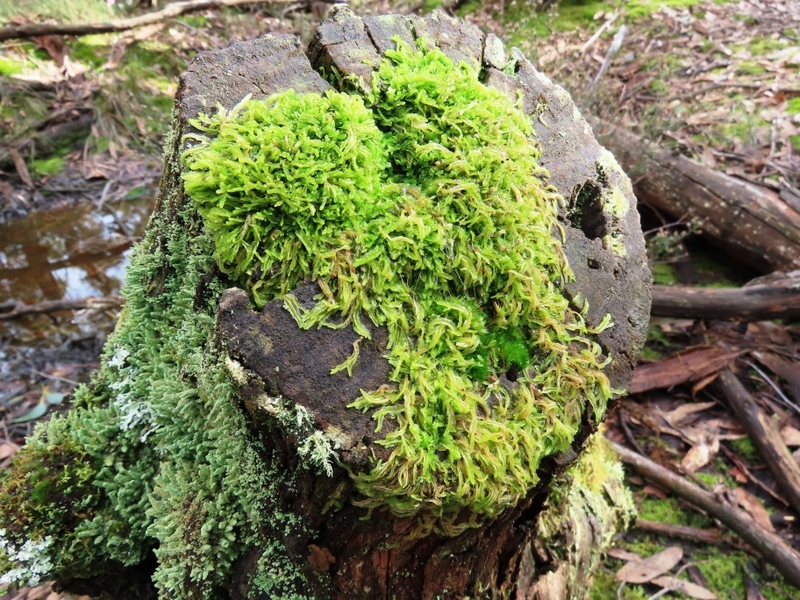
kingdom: Plantae
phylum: Bryophyta
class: Bryopsida
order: Hypnales
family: Hypnaceae
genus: Hypnum
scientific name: Hypnum cupressiforme
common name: Cypress-leaved plait-moss
